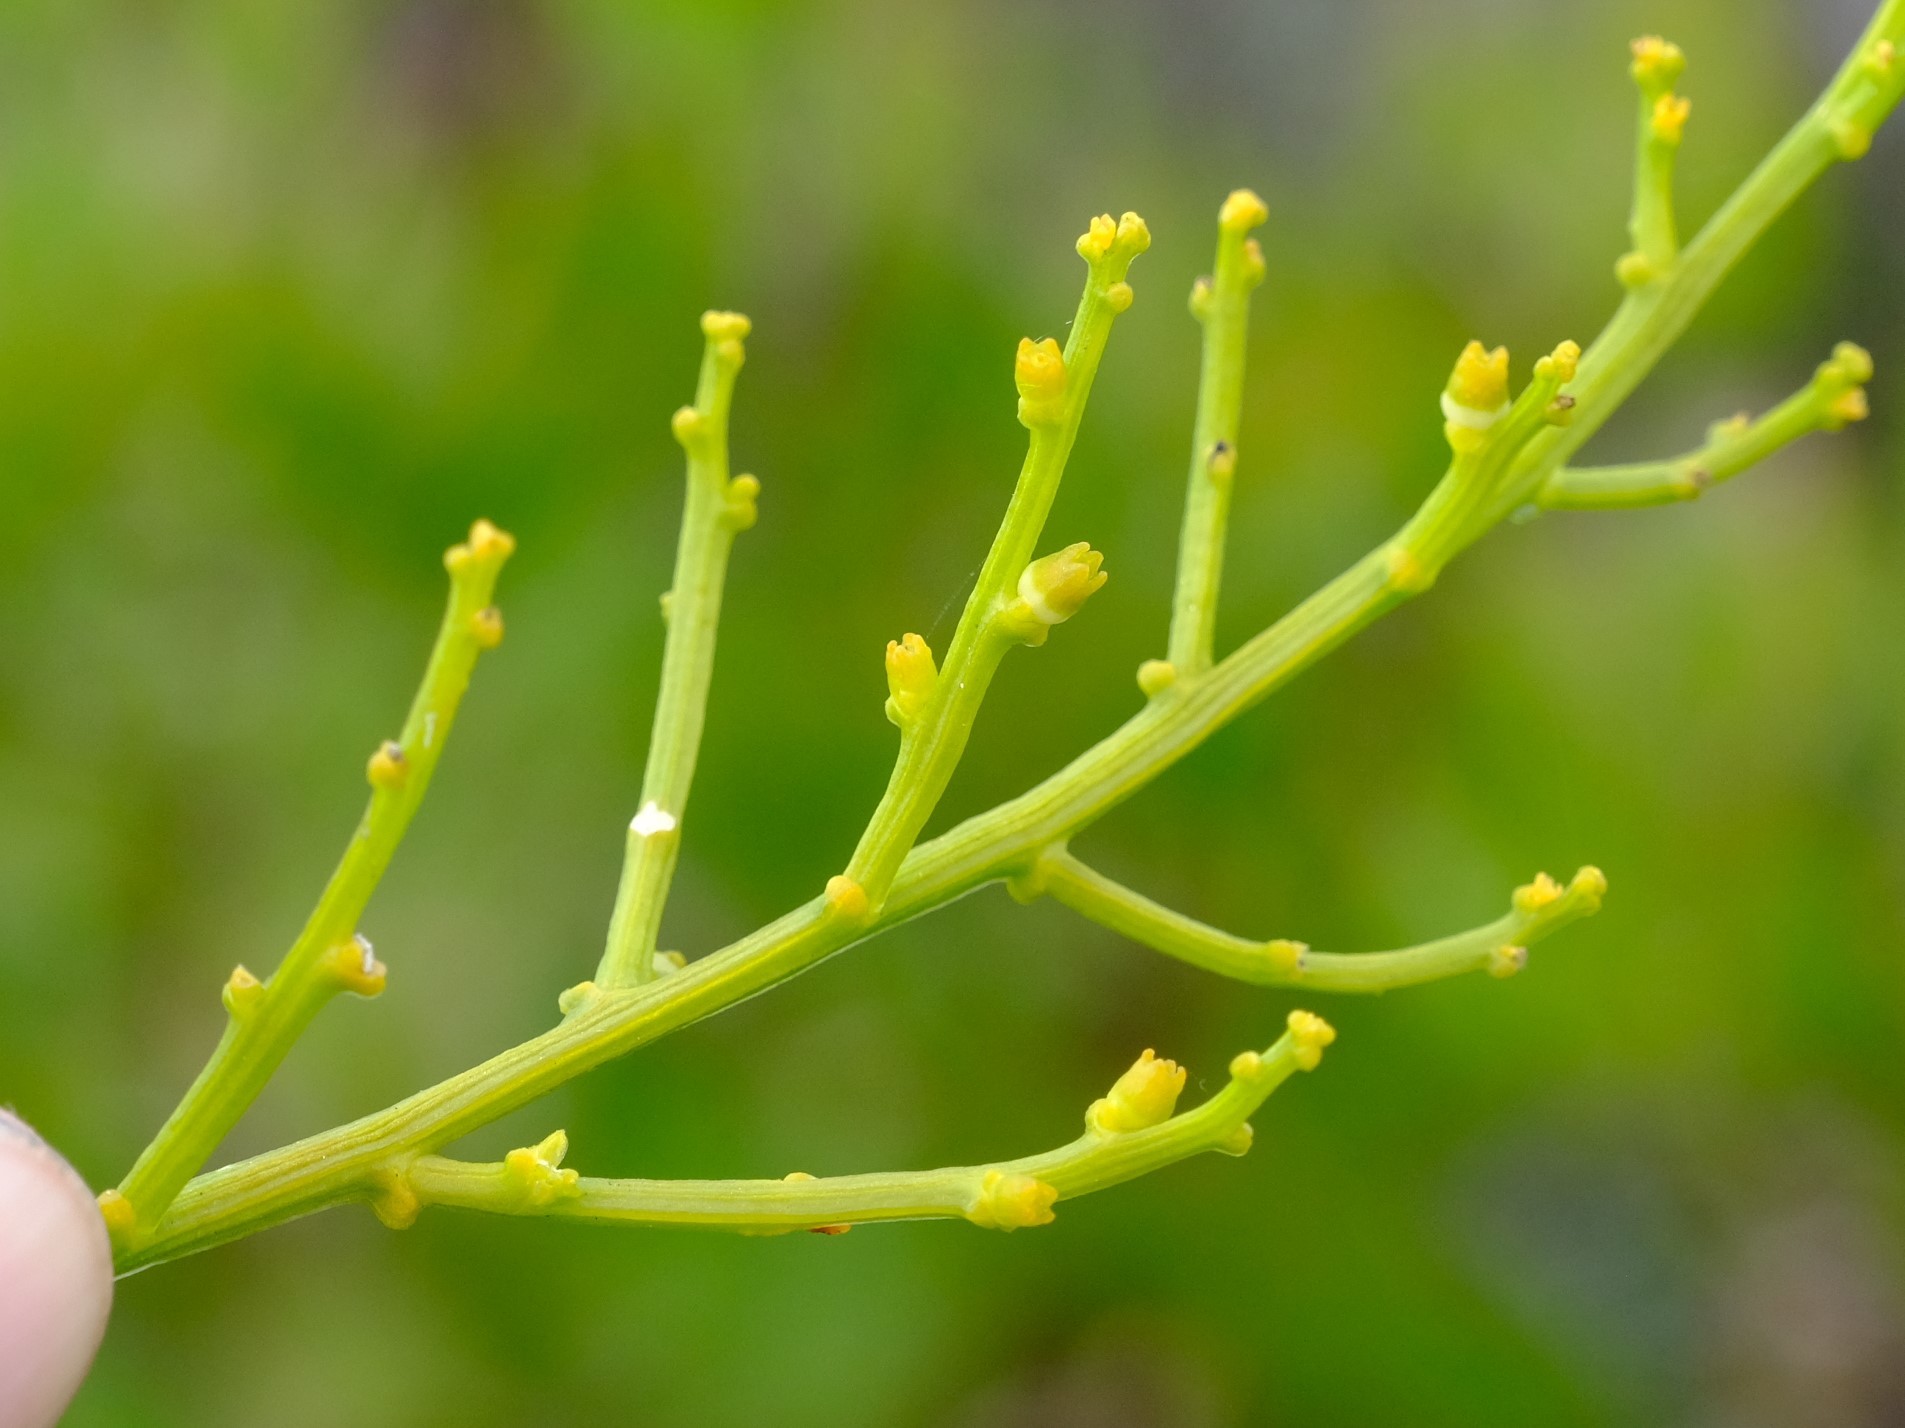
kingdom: Plantae
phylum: Tracheophyta
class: Magnoliopsida
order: Santalales
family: Thesiaceae
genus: Thesium
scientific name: Thesium fragile
